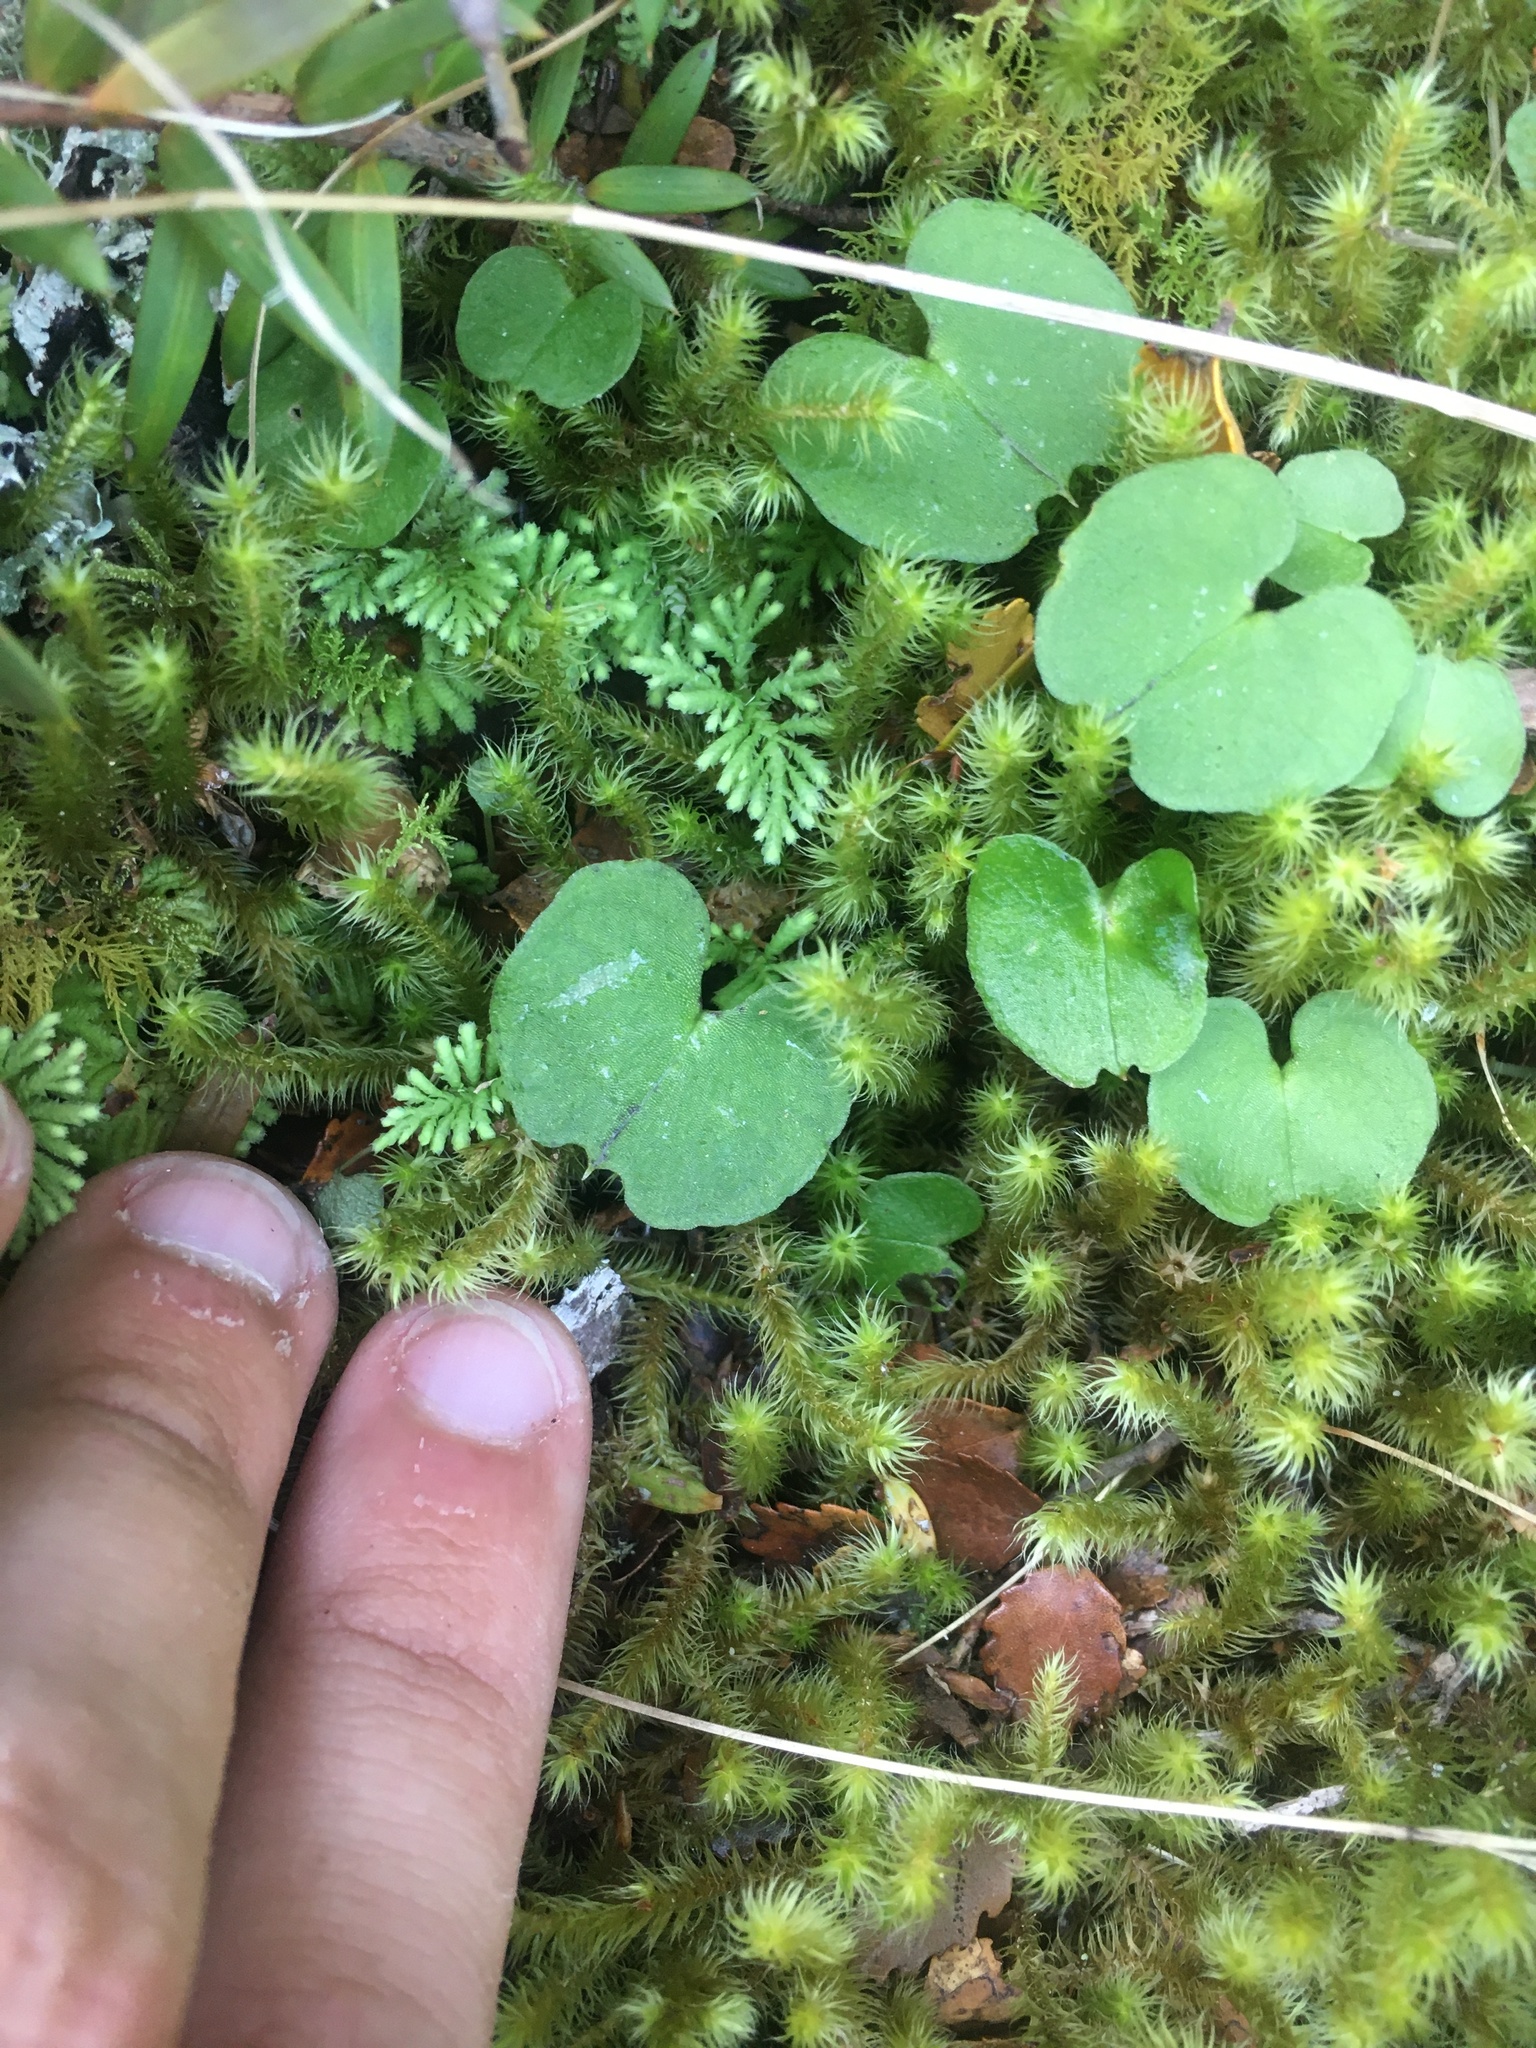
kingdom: Plantae
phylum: Tracheophyta
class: Liliopsida
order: Asparagales
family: Orchidaceae
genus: Corybas
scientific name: Corybas trilobus
